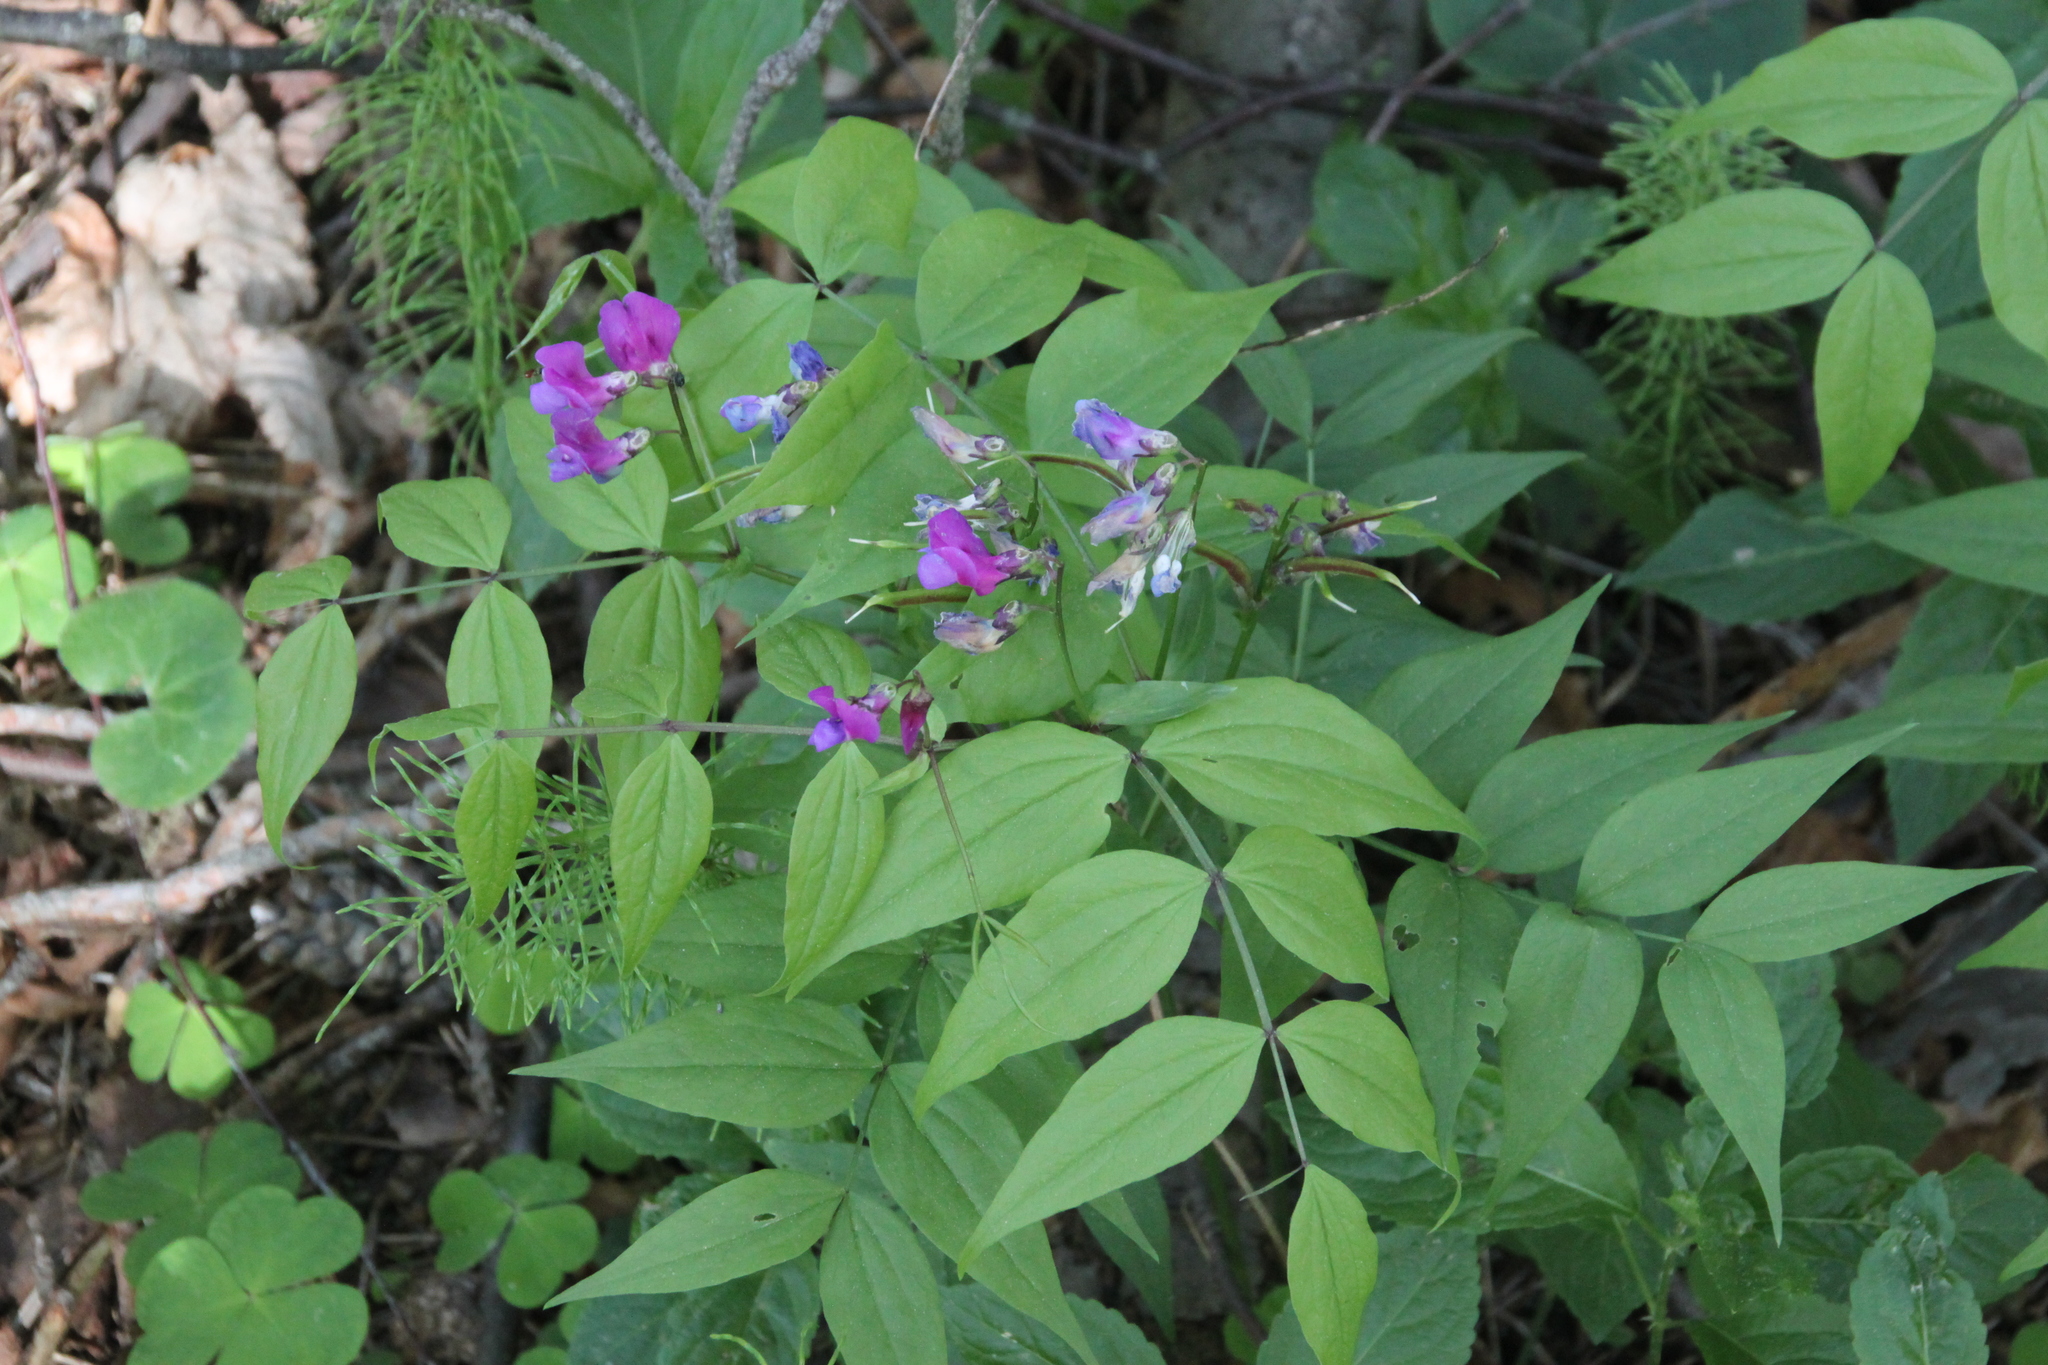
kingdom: Plantae
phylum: Tracheophyta
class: Magnoliopsida
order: Fabales
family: Fabaceae
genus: Lathyrus
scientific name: Lathyrus vernus
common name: Spring pea
